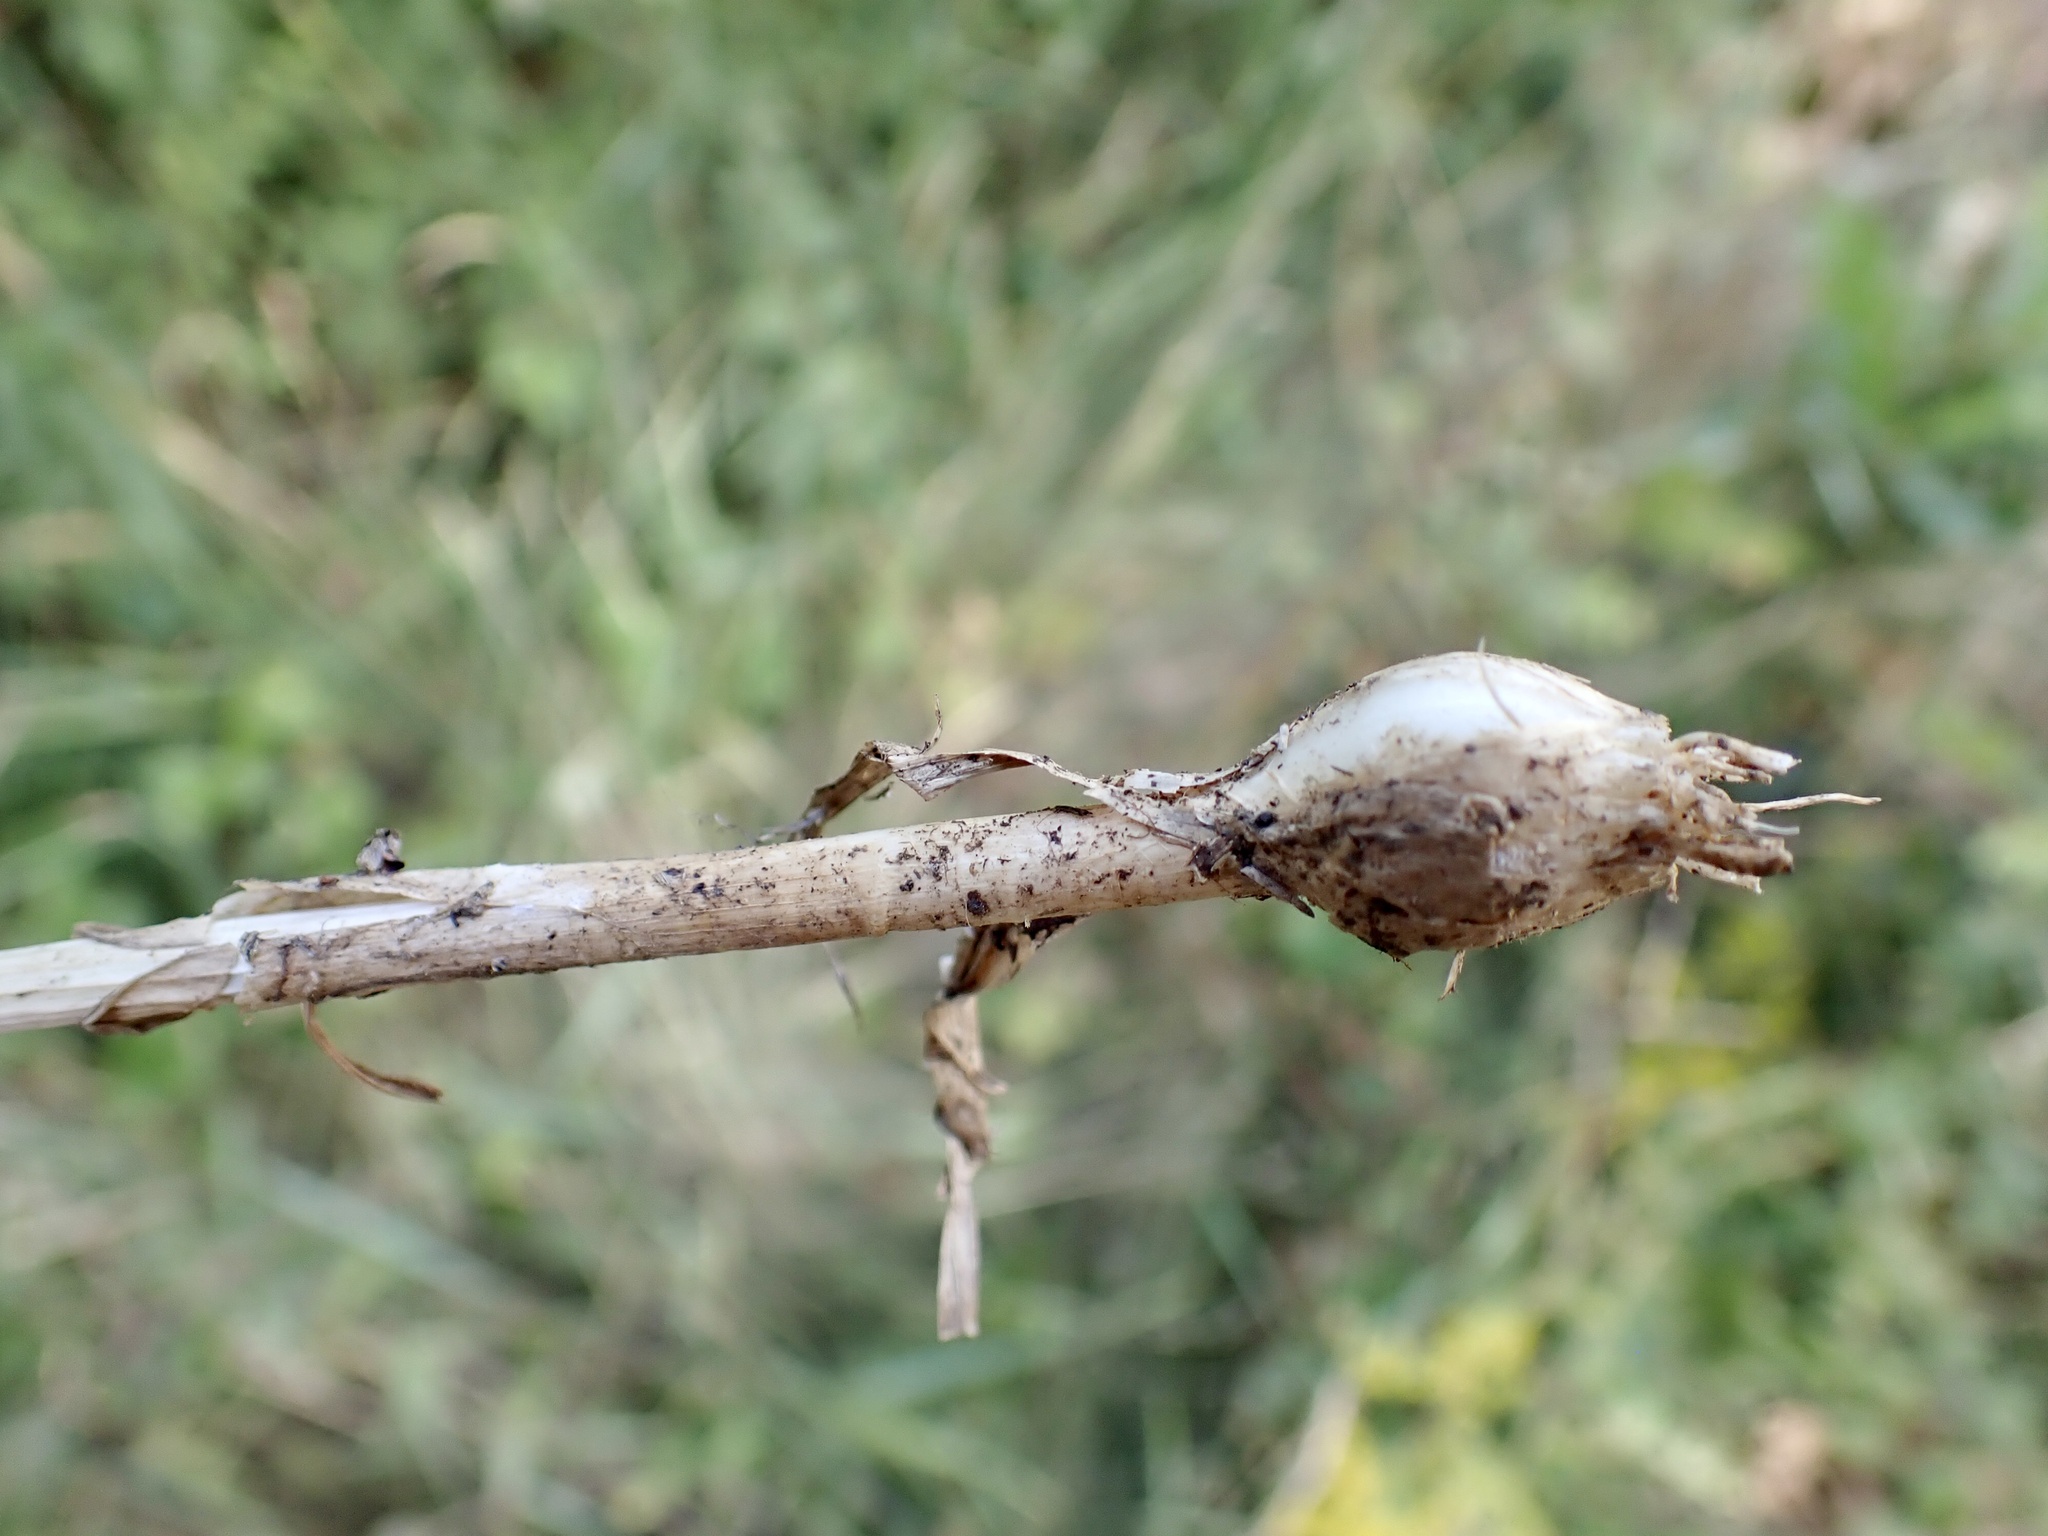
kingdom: Plantae
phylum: Tracheophyta
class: Liliopsida
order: Asparagales
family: Amaryllidaceae
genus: Allium
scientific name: Allium oleraceum
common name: Field garlic
